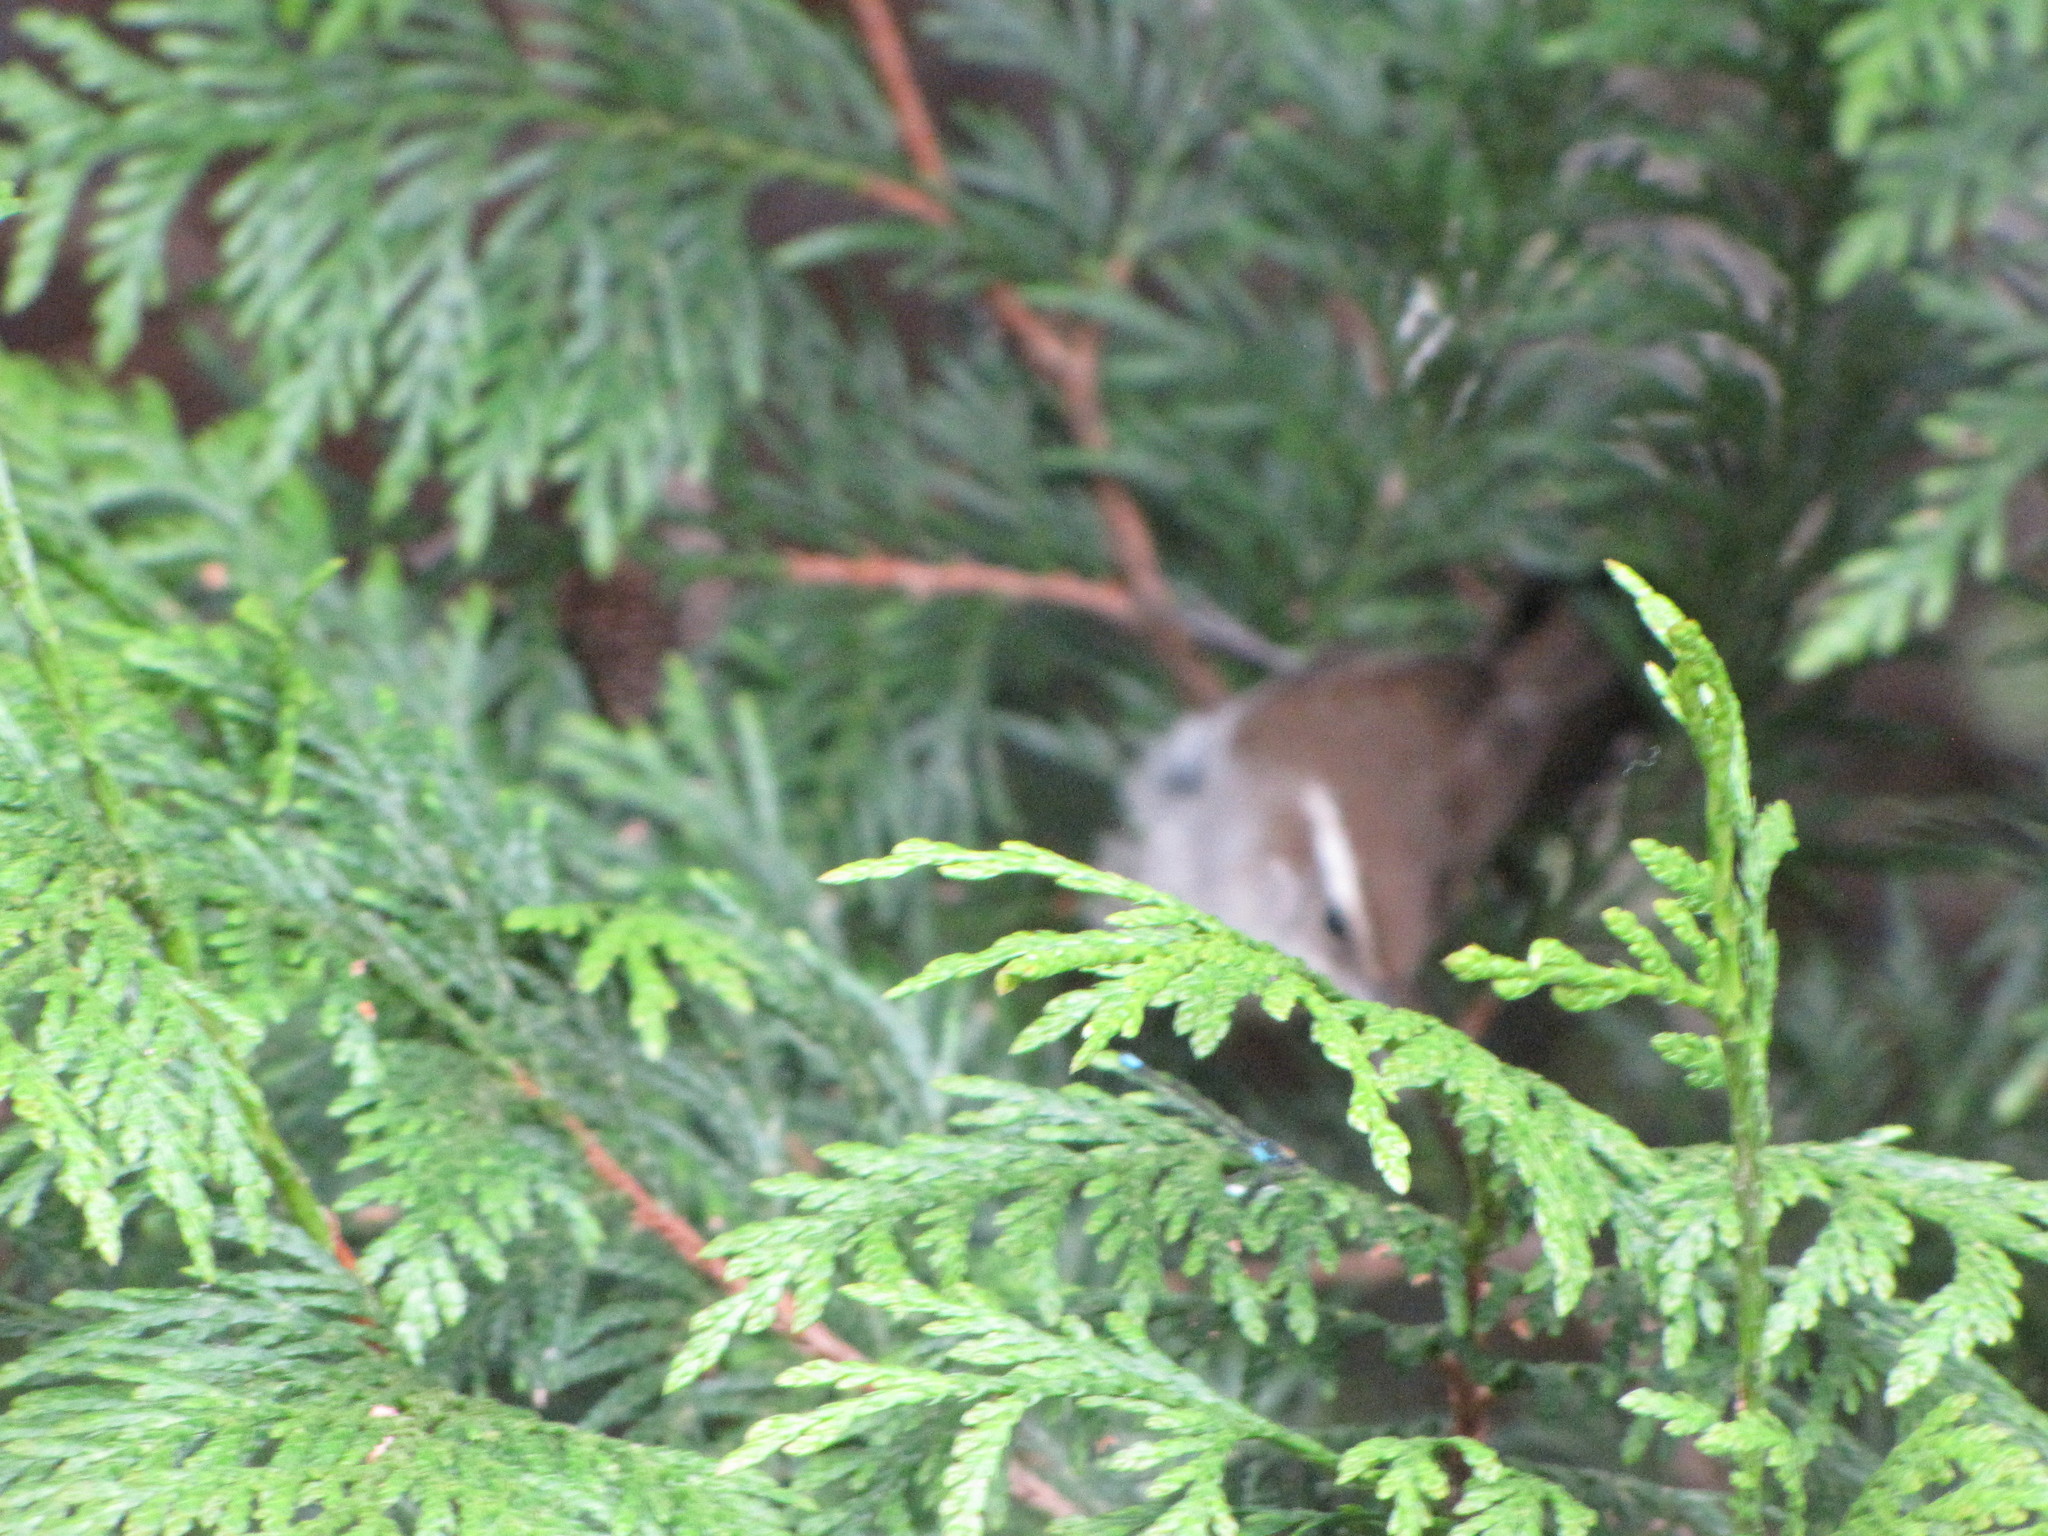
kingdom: Animalia
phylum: Chordata
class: Aves
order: Passeriformes
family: Troglodytidae
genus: Thryomanes
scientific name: Thryomanes bewickii
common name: Bewick's wren
